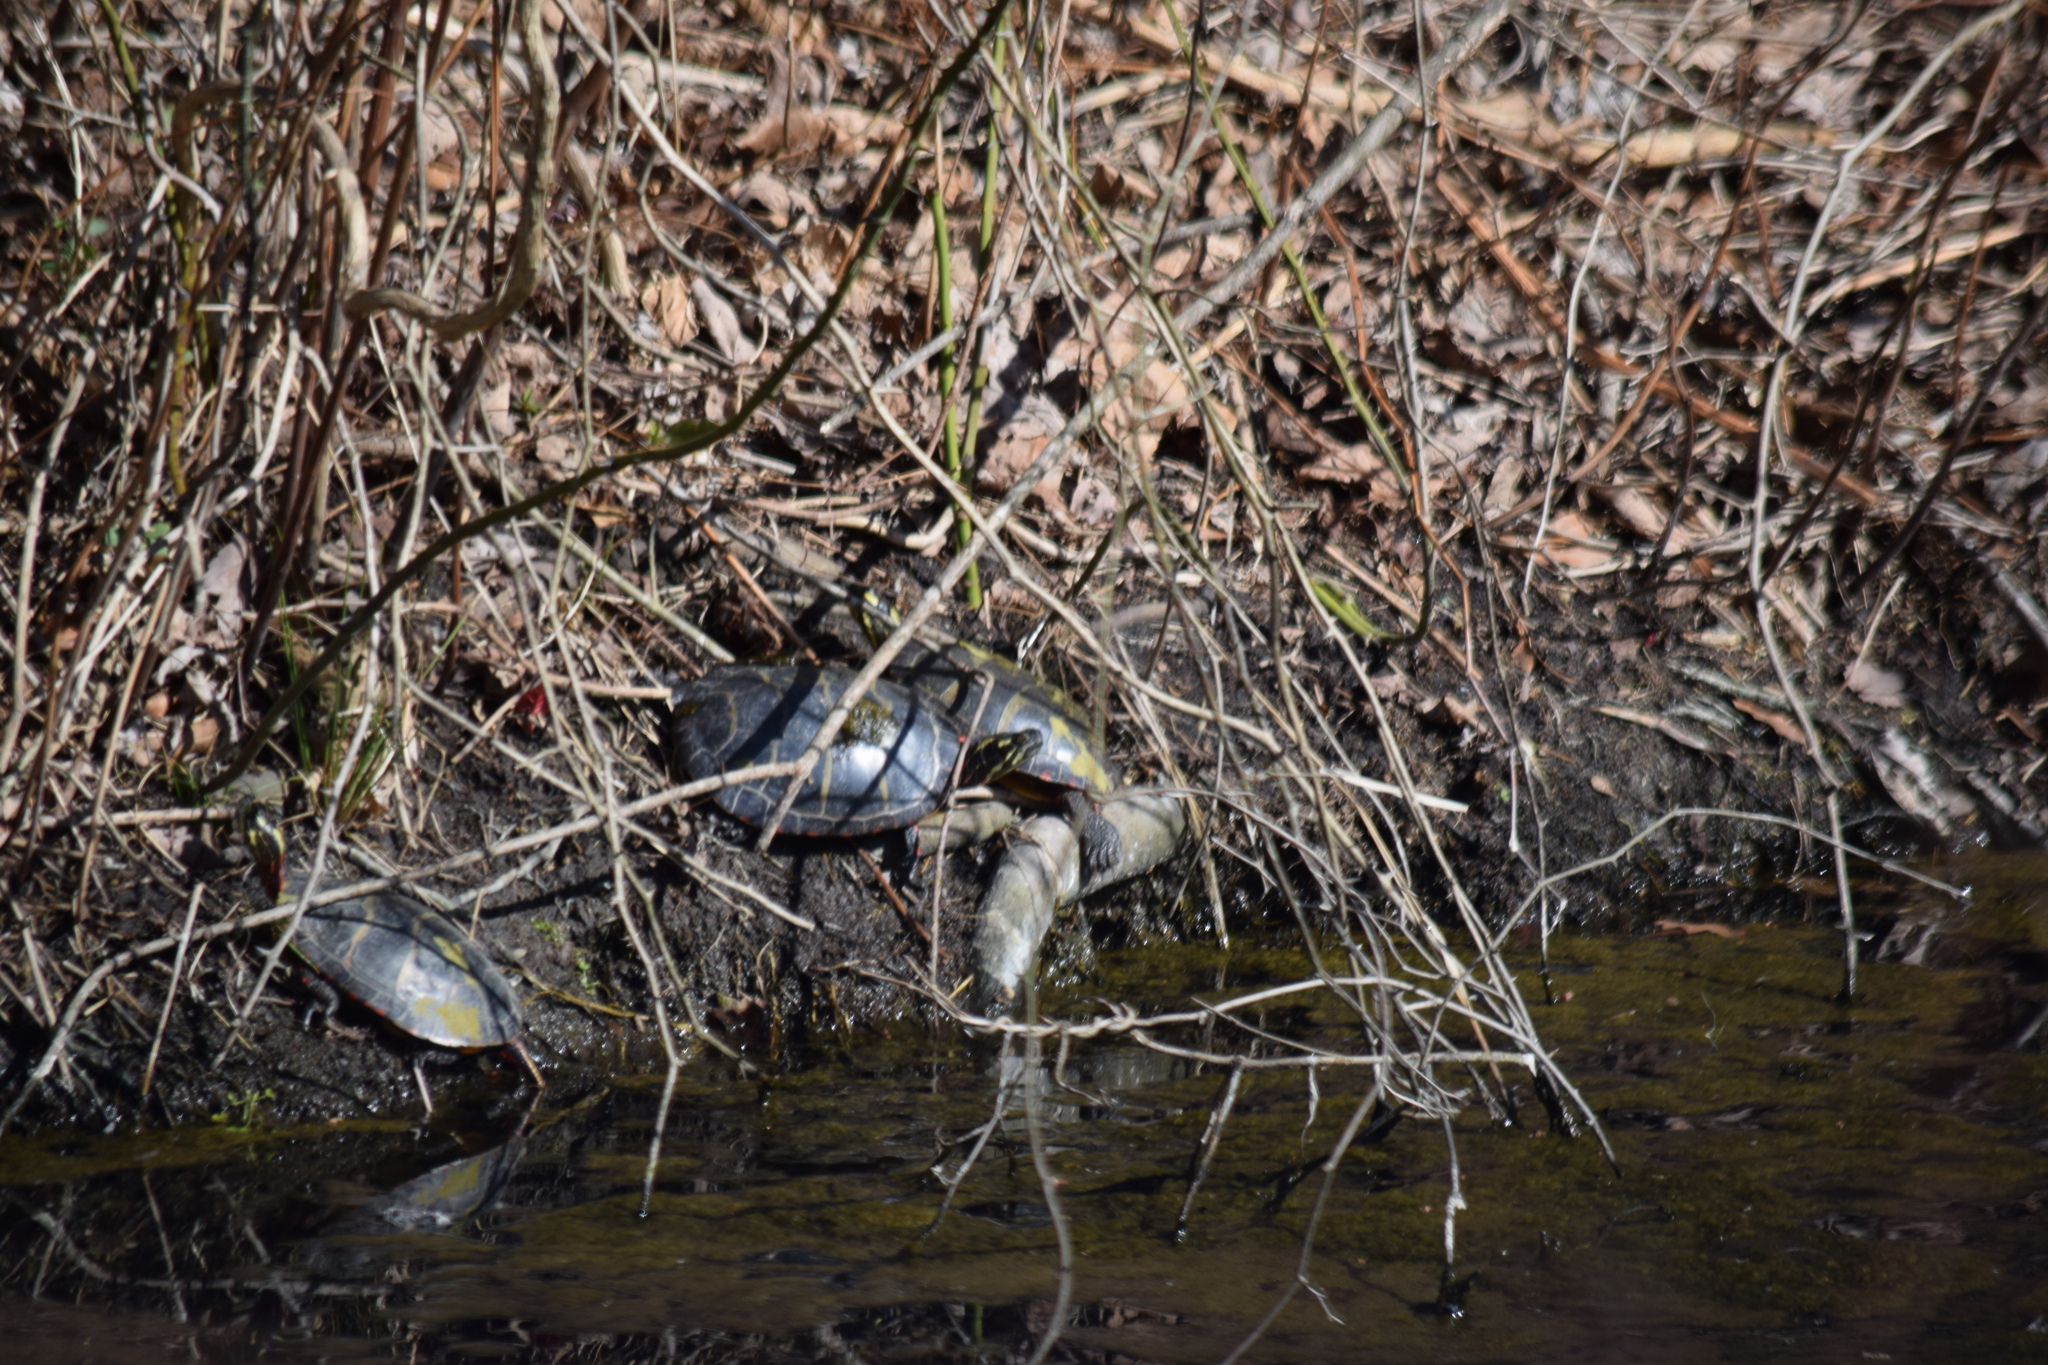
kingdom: Animalia
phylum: Chordata
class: Testudines
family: Emydidae
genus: Chrysemys
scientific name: Chrysemys picta
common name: Painted turtle
